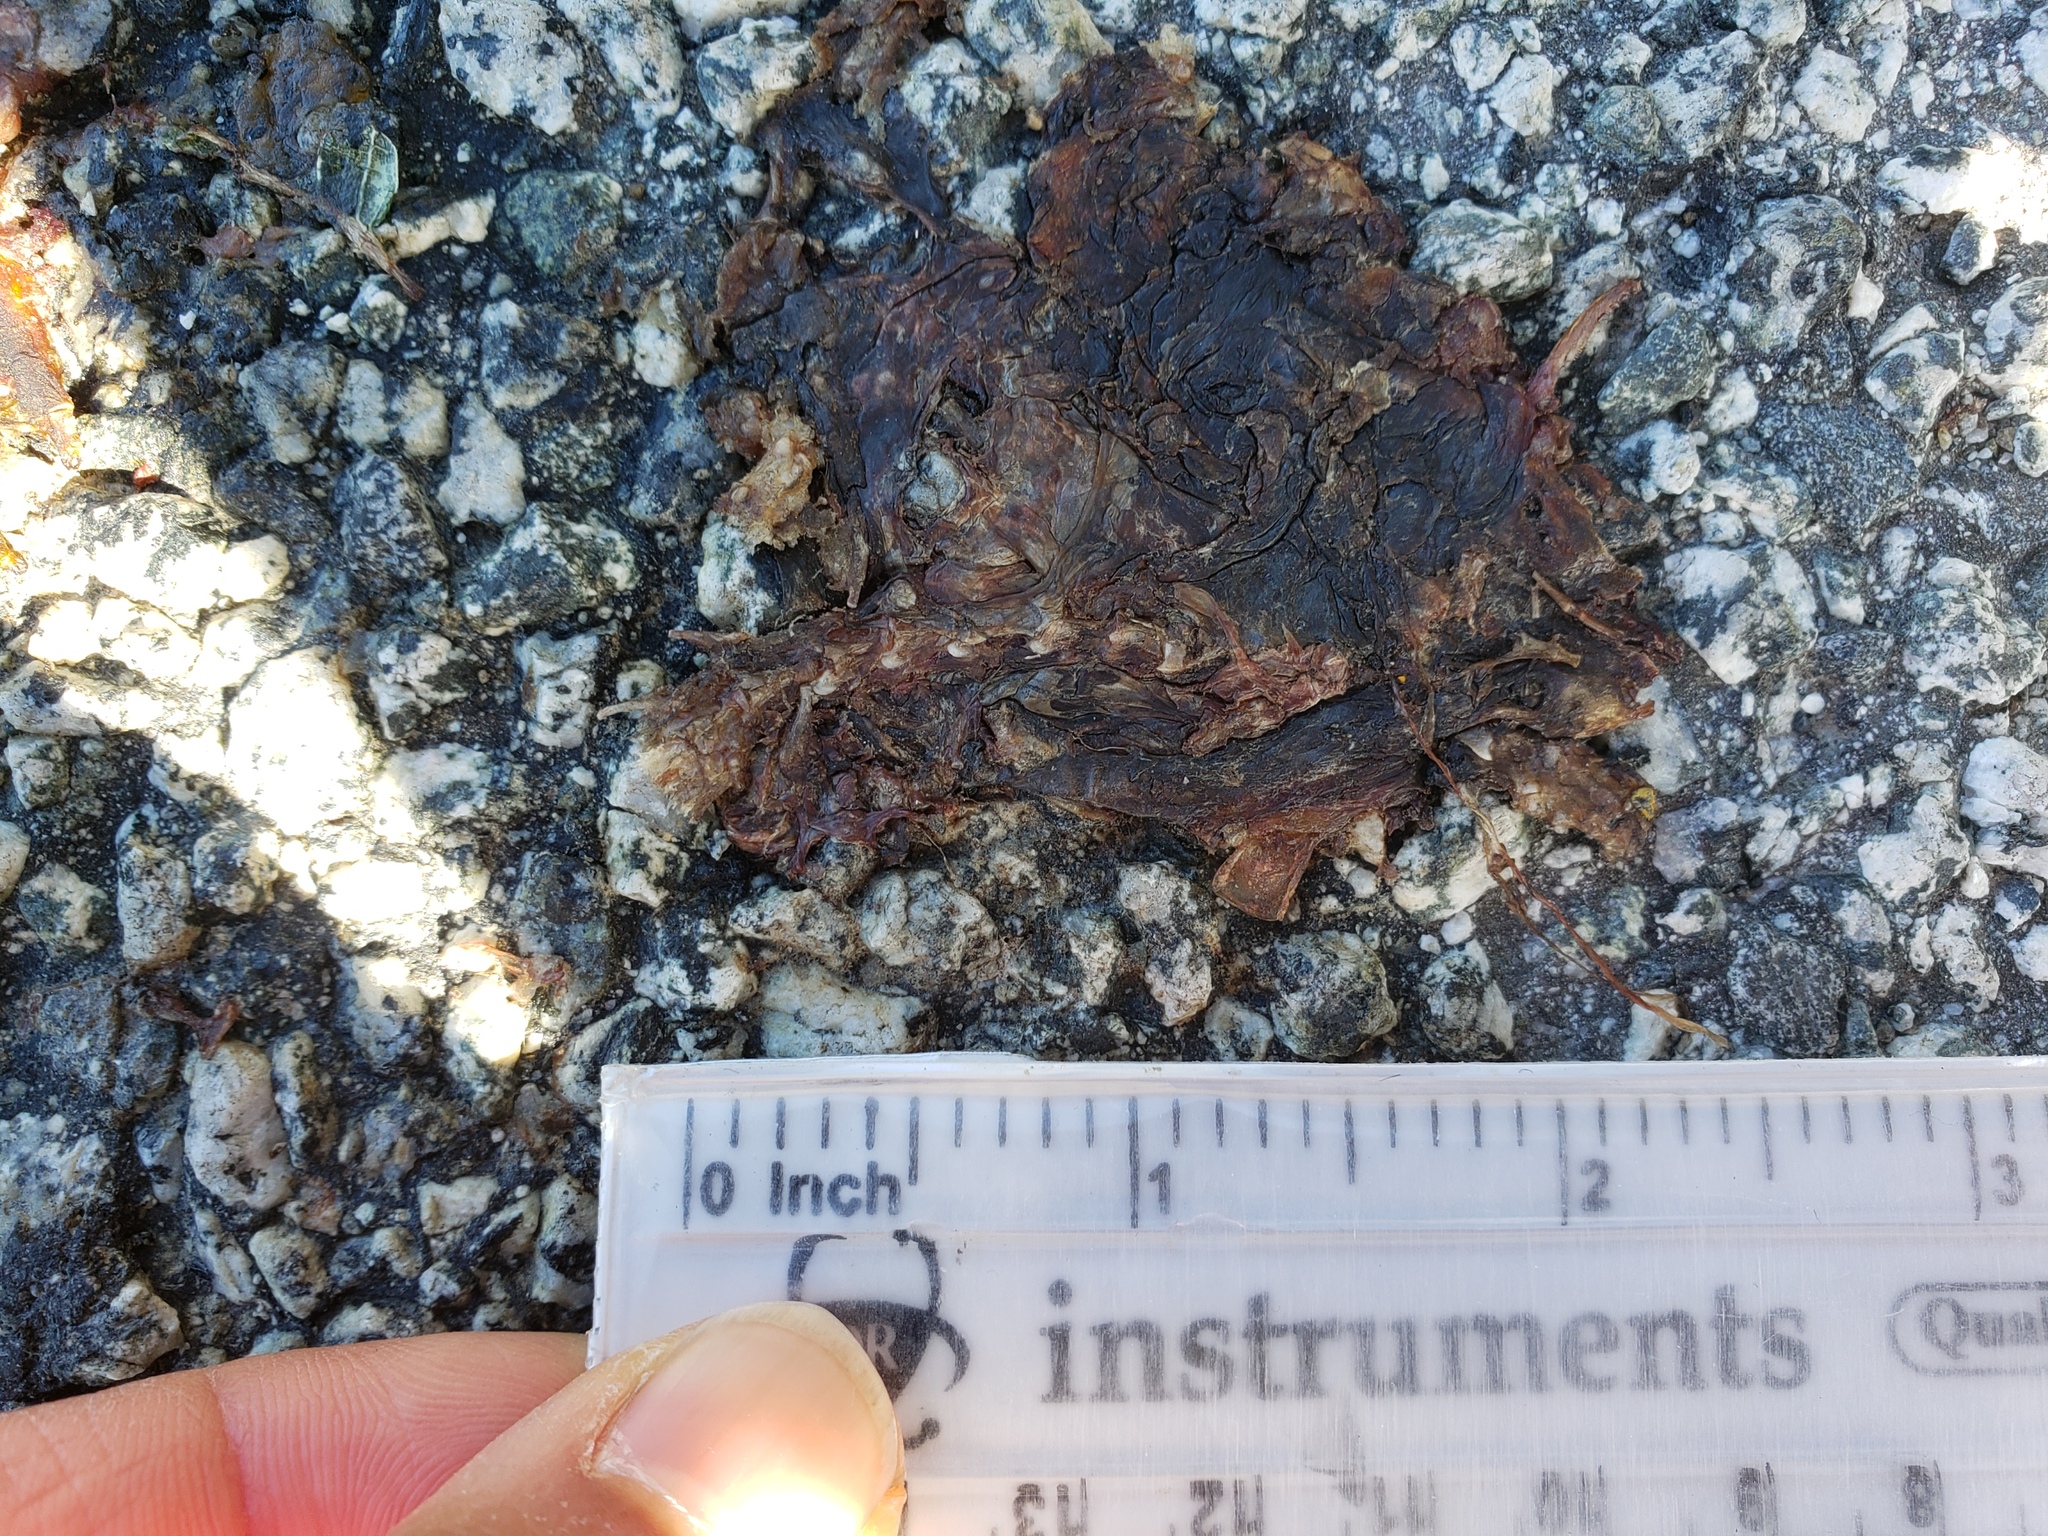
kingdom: Animalia
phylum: Chordata
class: Amphibia
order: Caudata
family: Salamandridae
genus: Taricha
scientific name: Taricha
